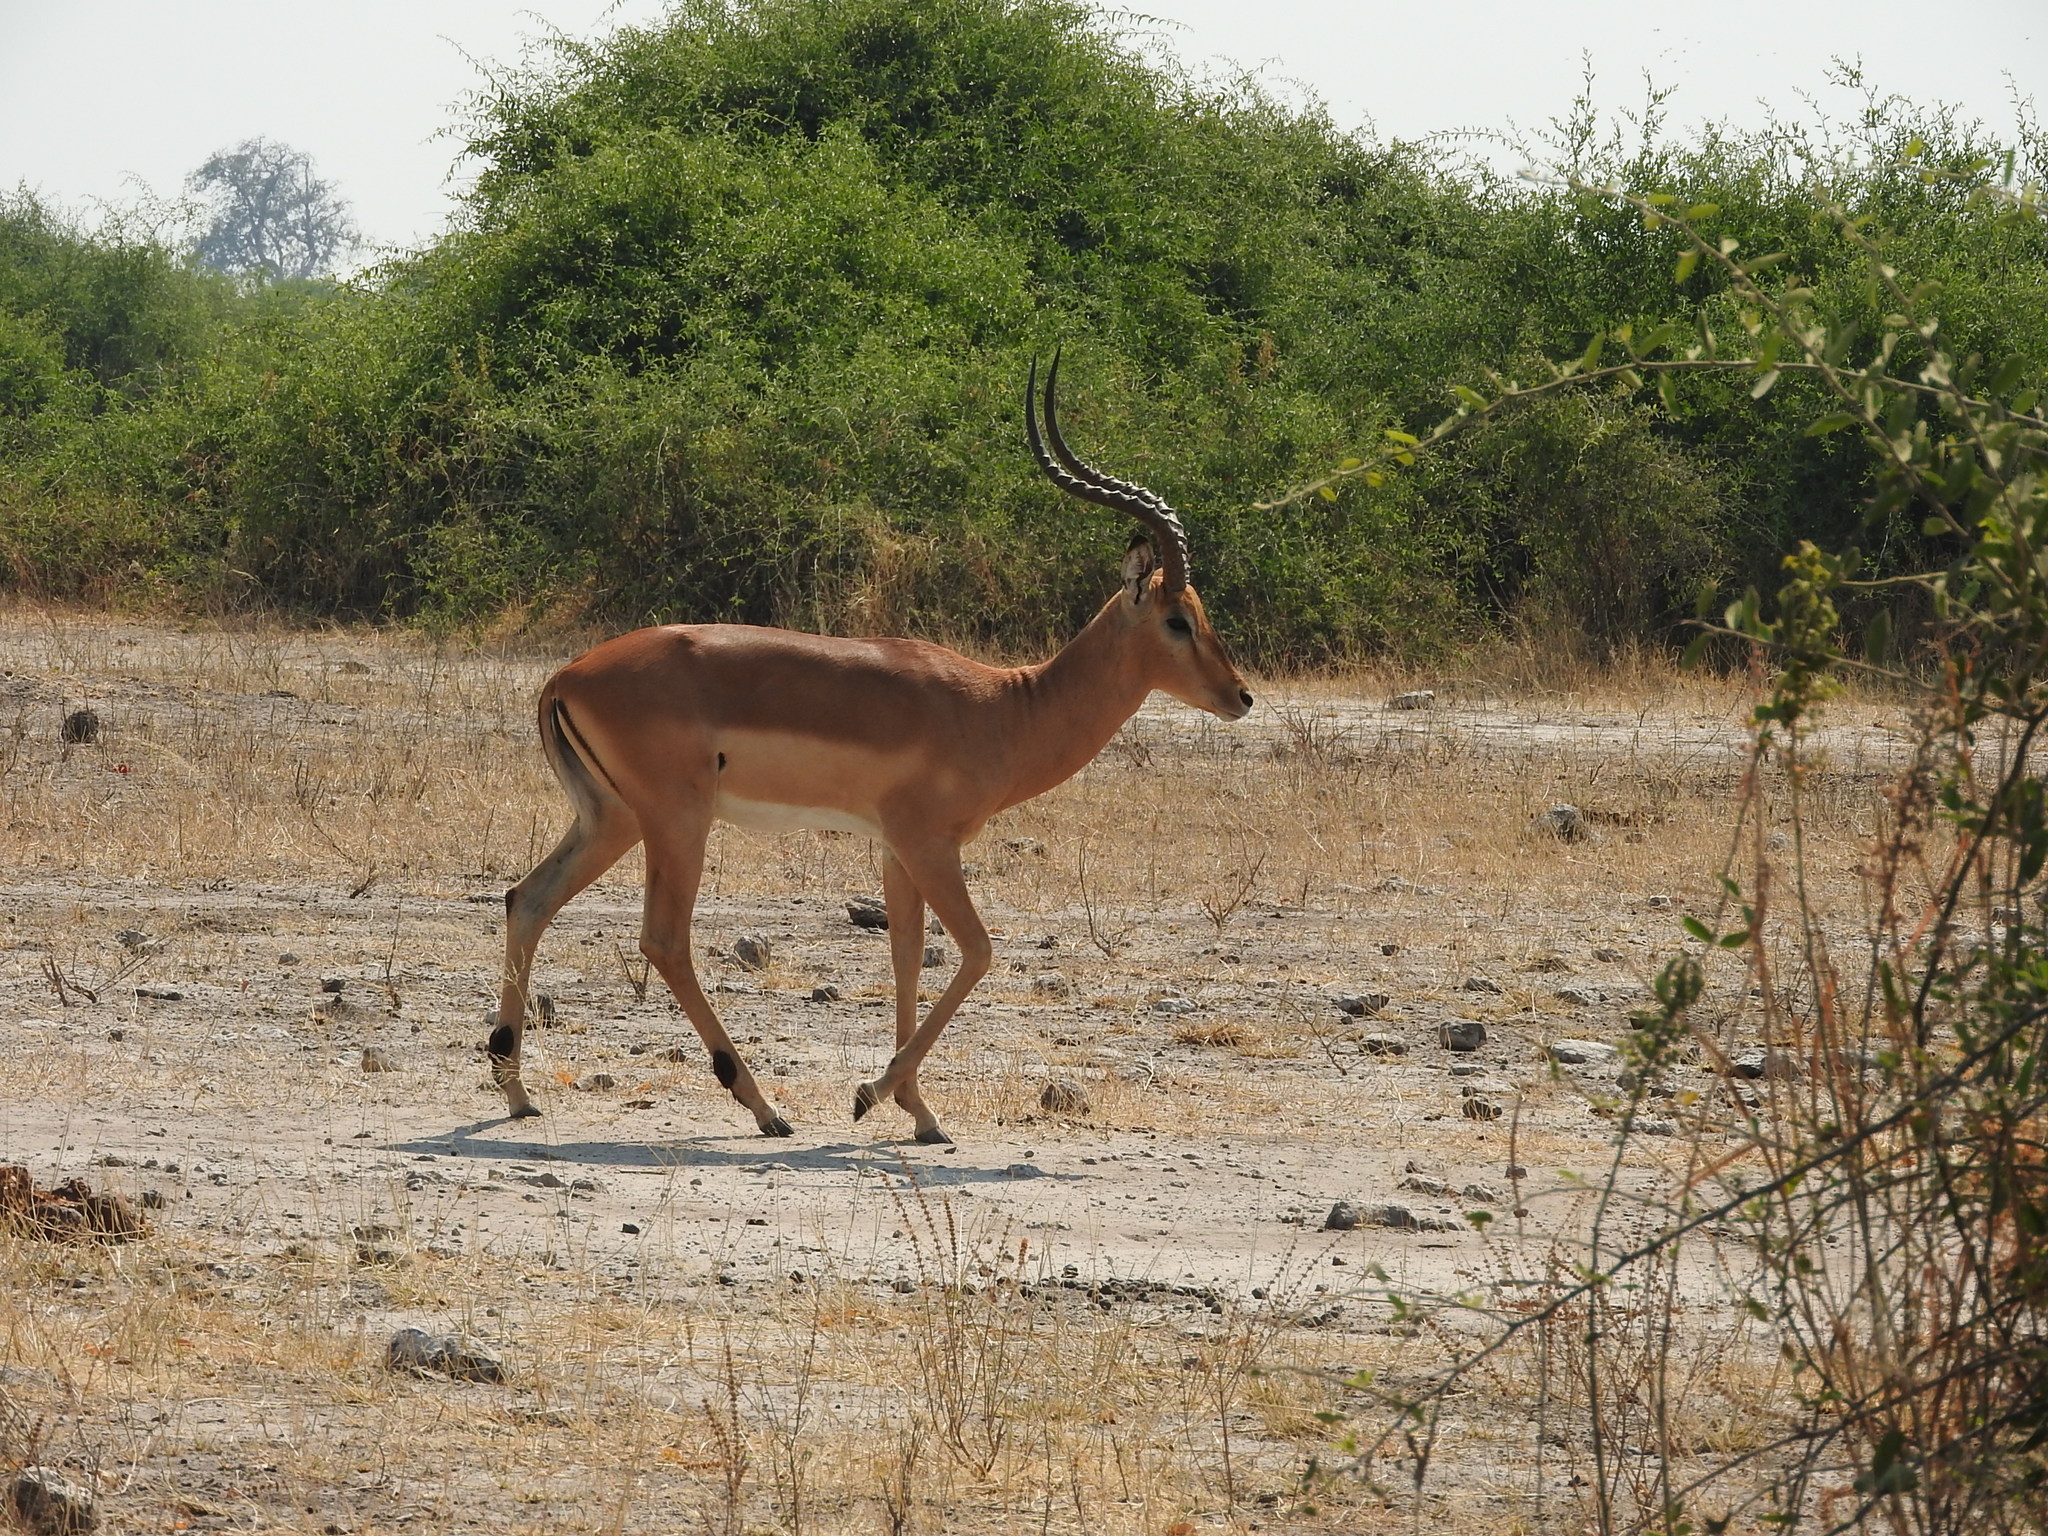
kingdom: Animalia
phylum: Chordata
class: Mammalia
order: Artiodactyla
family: Bovidae
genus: Aepyceros
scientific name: Aepyceros melampus
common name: Impala
